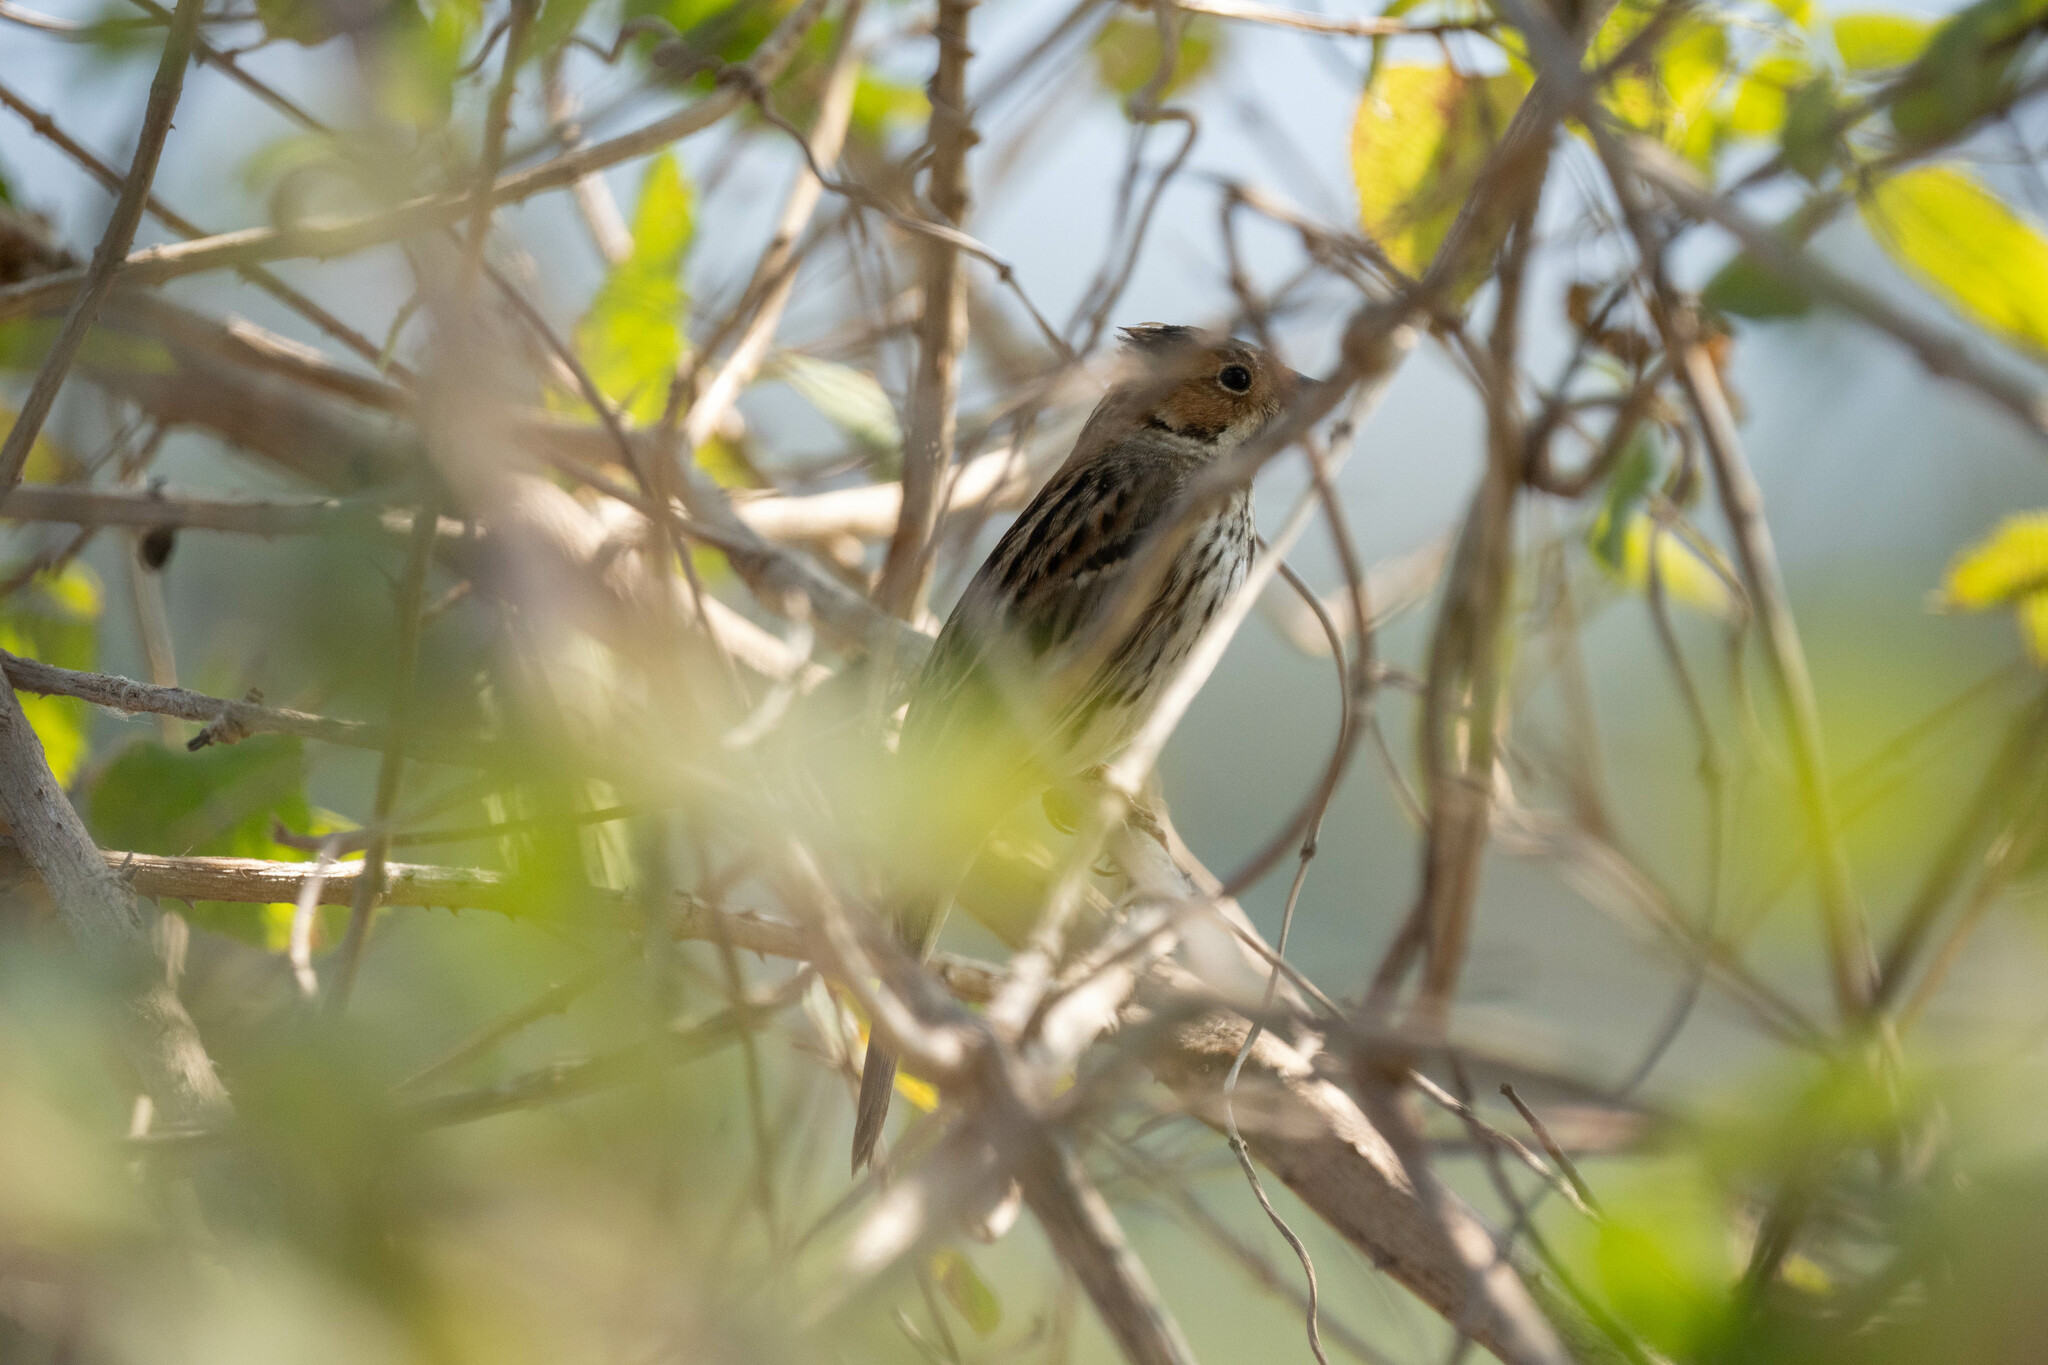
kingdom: Animalia
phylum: Chordata
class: Aves
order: Passeriformes
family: Emberizidae
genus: Emberiza
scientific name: Emberiza pusilla
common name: Little bunting
